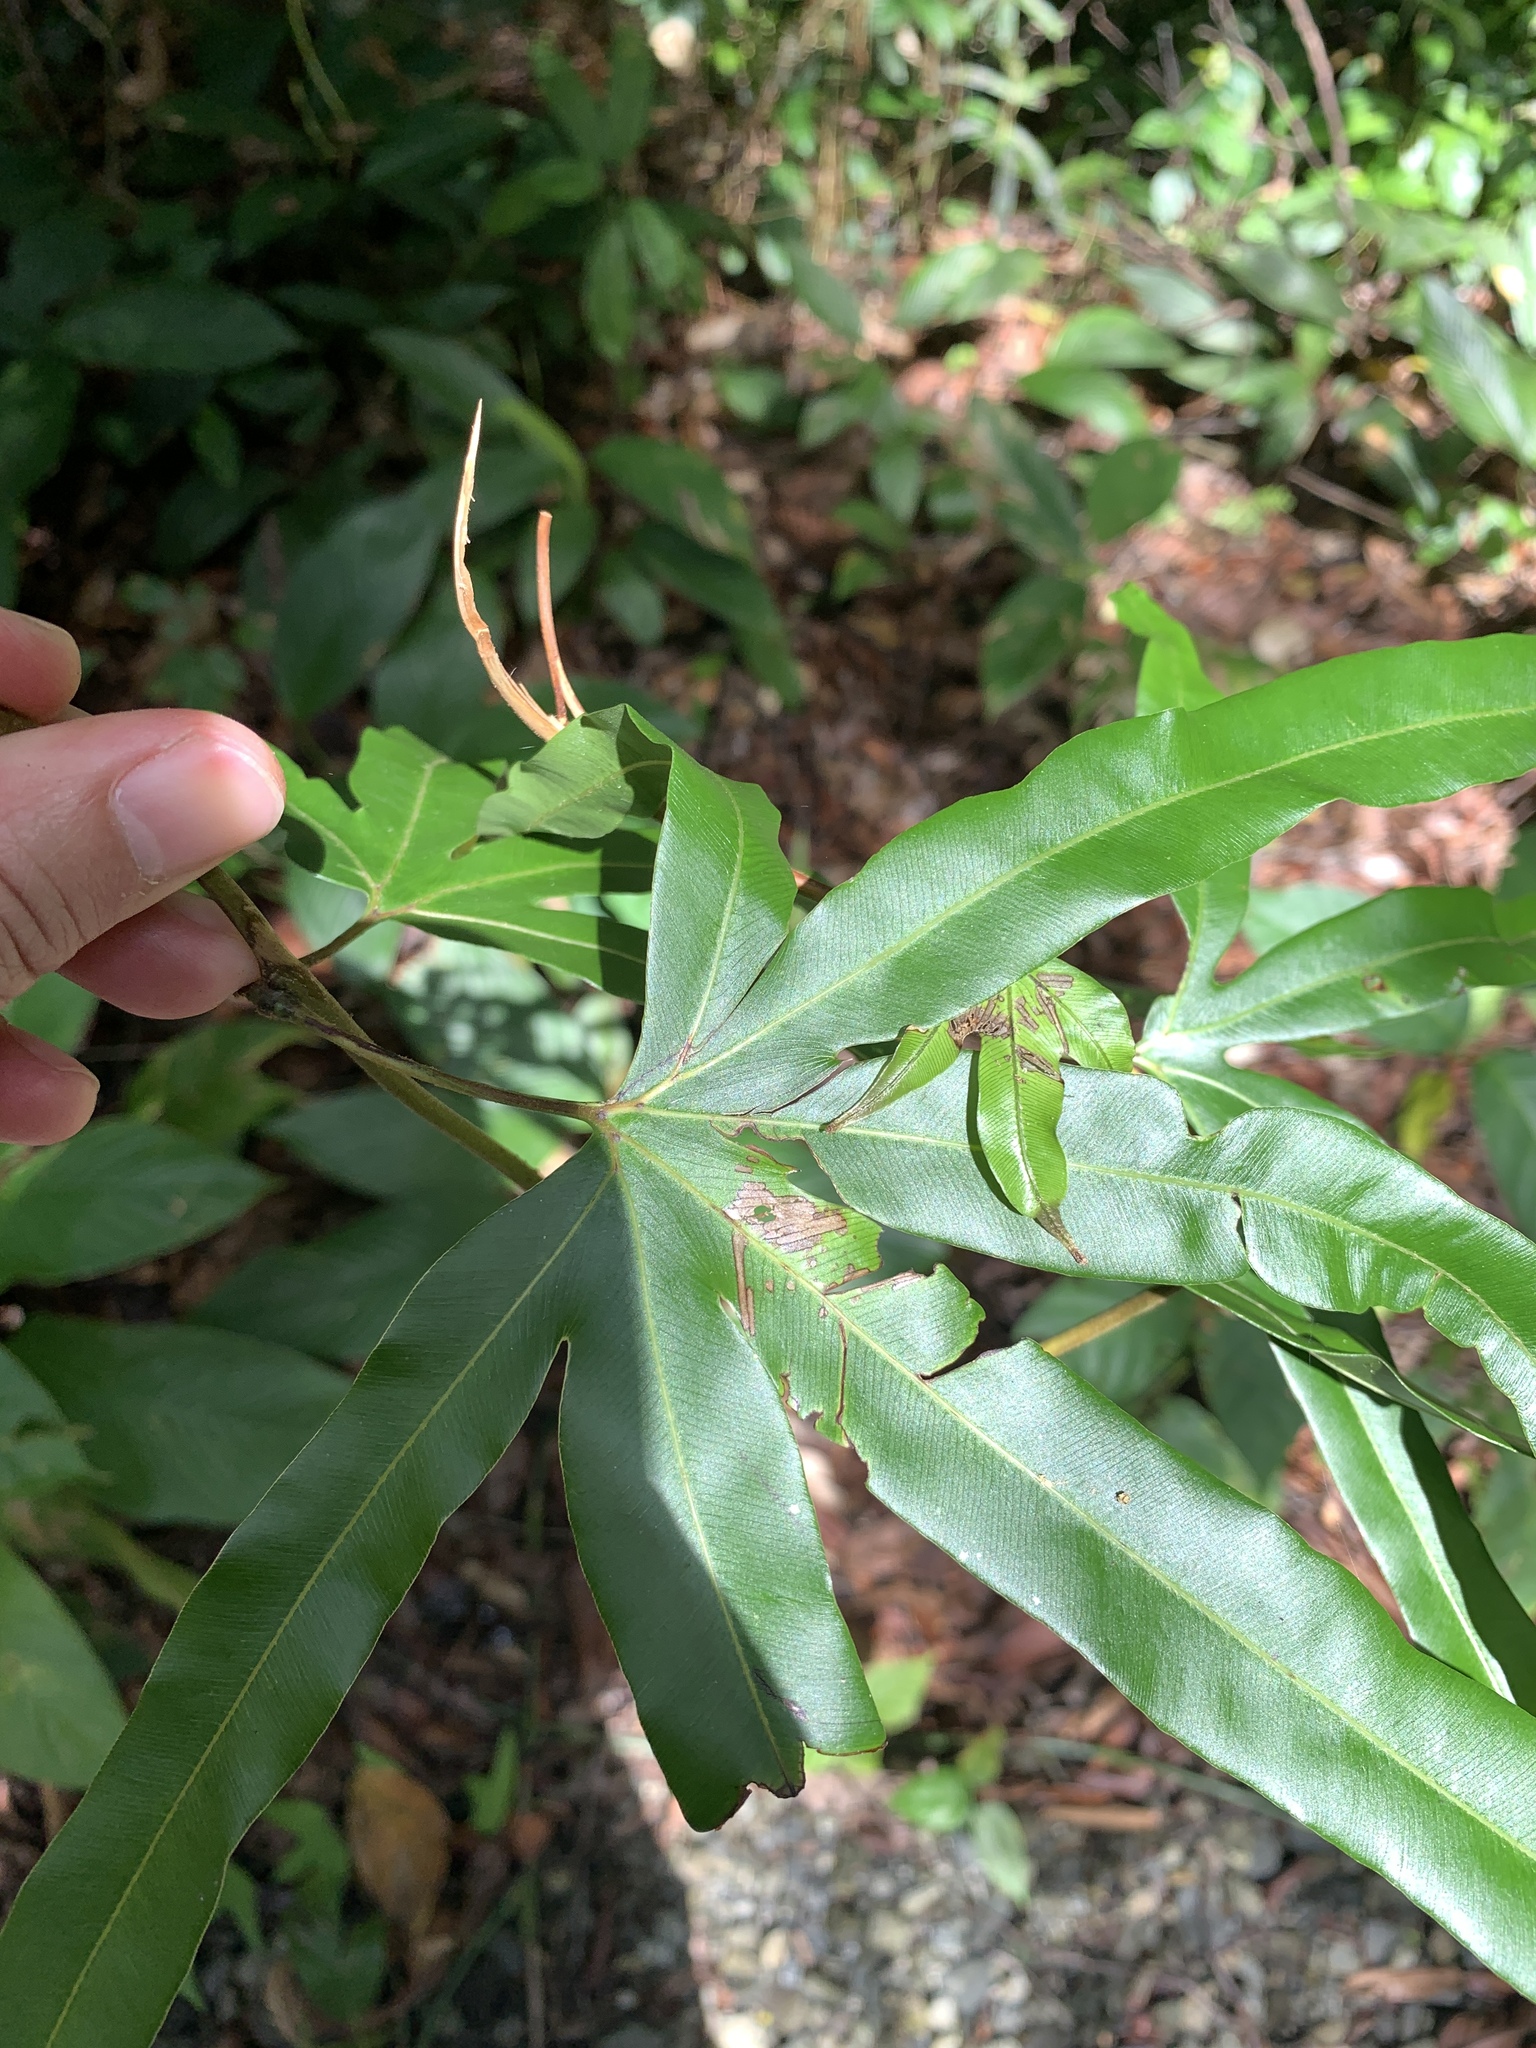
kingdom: Plantae
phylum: Tracheophyta
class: Polypodiopsida
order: Schizaeales
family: Lygodiaceae
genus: Lygodium
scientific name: Lygodium circinnatum
